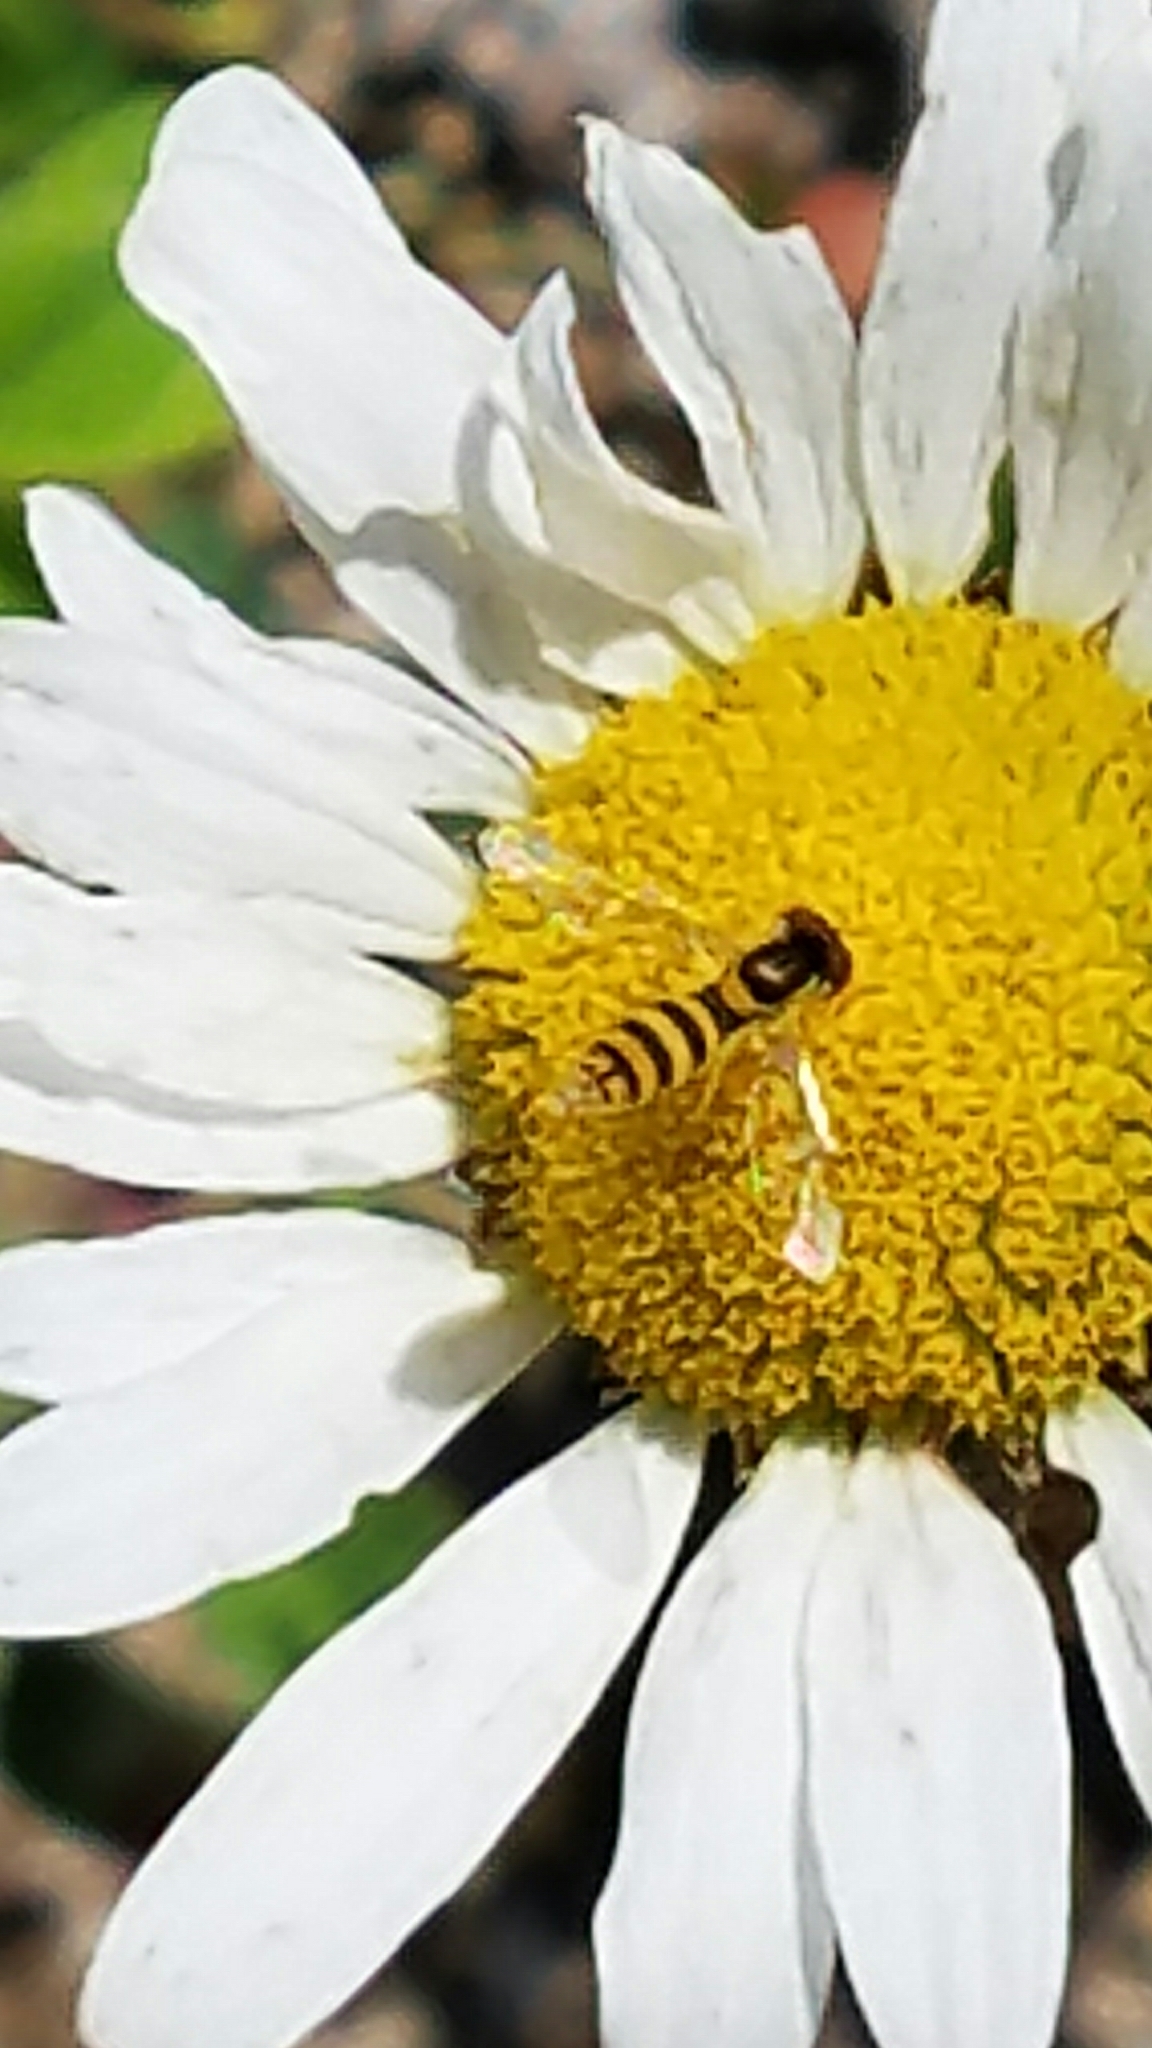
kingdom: Animalia
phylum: Arthropoda
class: Insecta
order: Diptera
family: Syrphidae
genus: Sphaerophoria
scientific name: Sphaerophoria
